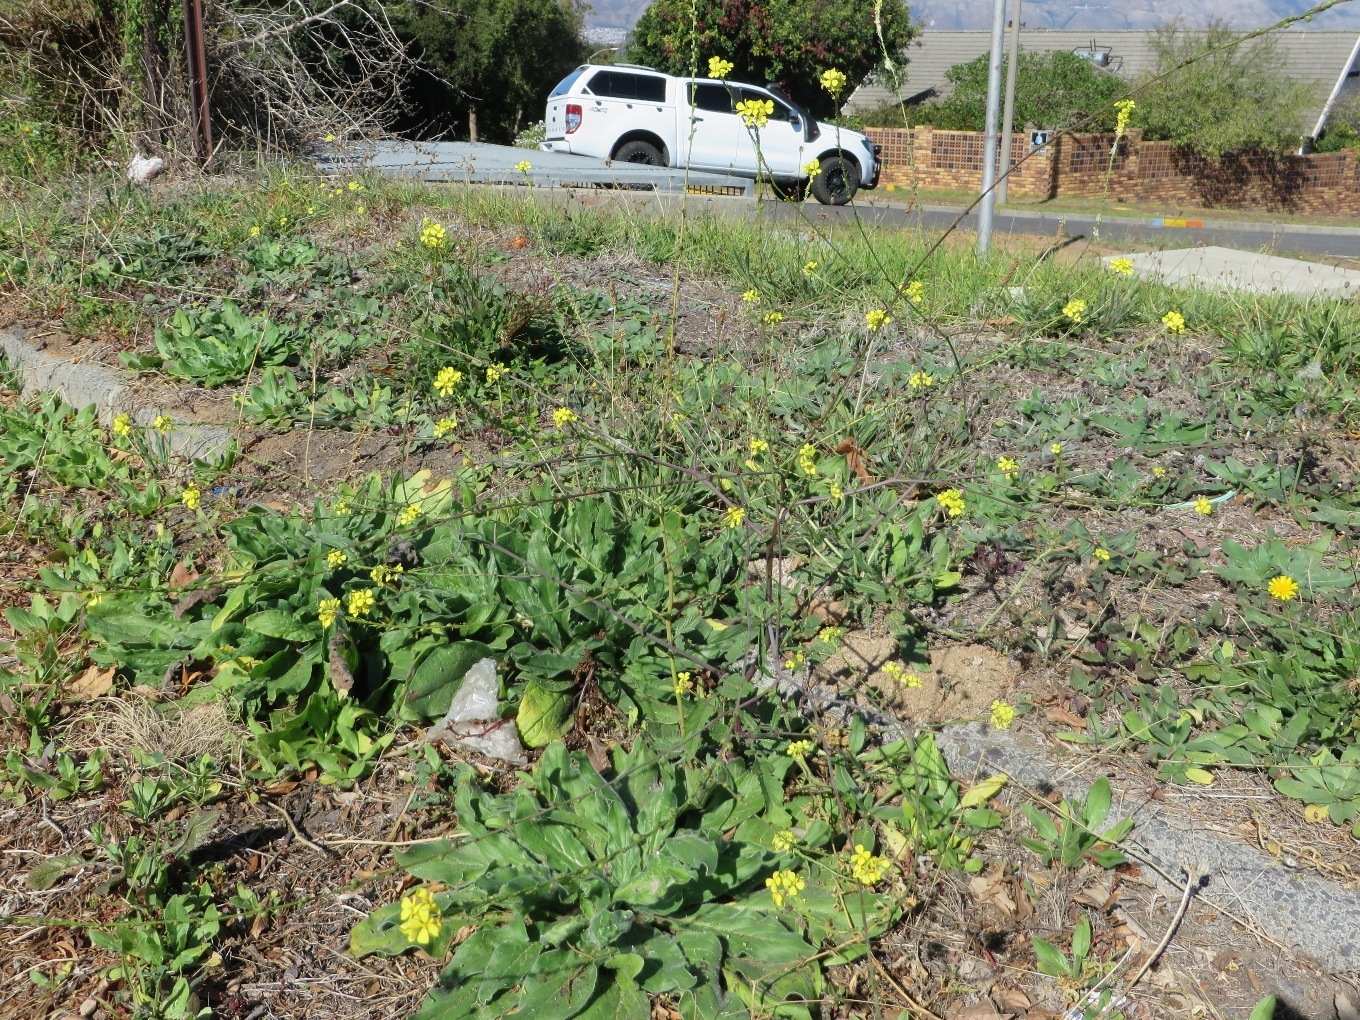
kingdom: Plantae
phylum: Tracheophyta
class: Magnoliopsida
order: Brassicales
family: Brassicaceae
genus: Rapistrum
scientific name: Rapistrum rugosum
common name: Annual bastardcabbage
